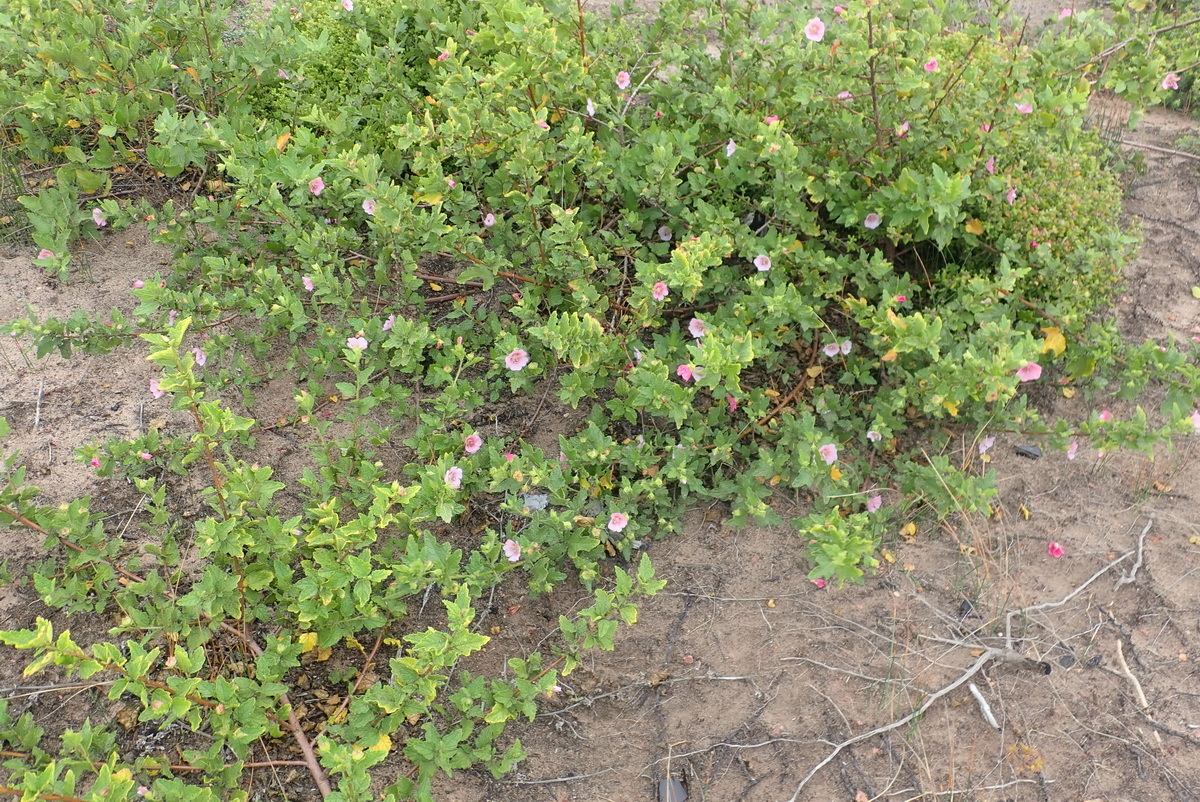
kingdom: Plantae
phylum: Tracheophyta
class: Magnoliopsida
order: Malvales
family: Malvaceae
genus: Anisodontea
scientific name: Anisodontea scabrosa
